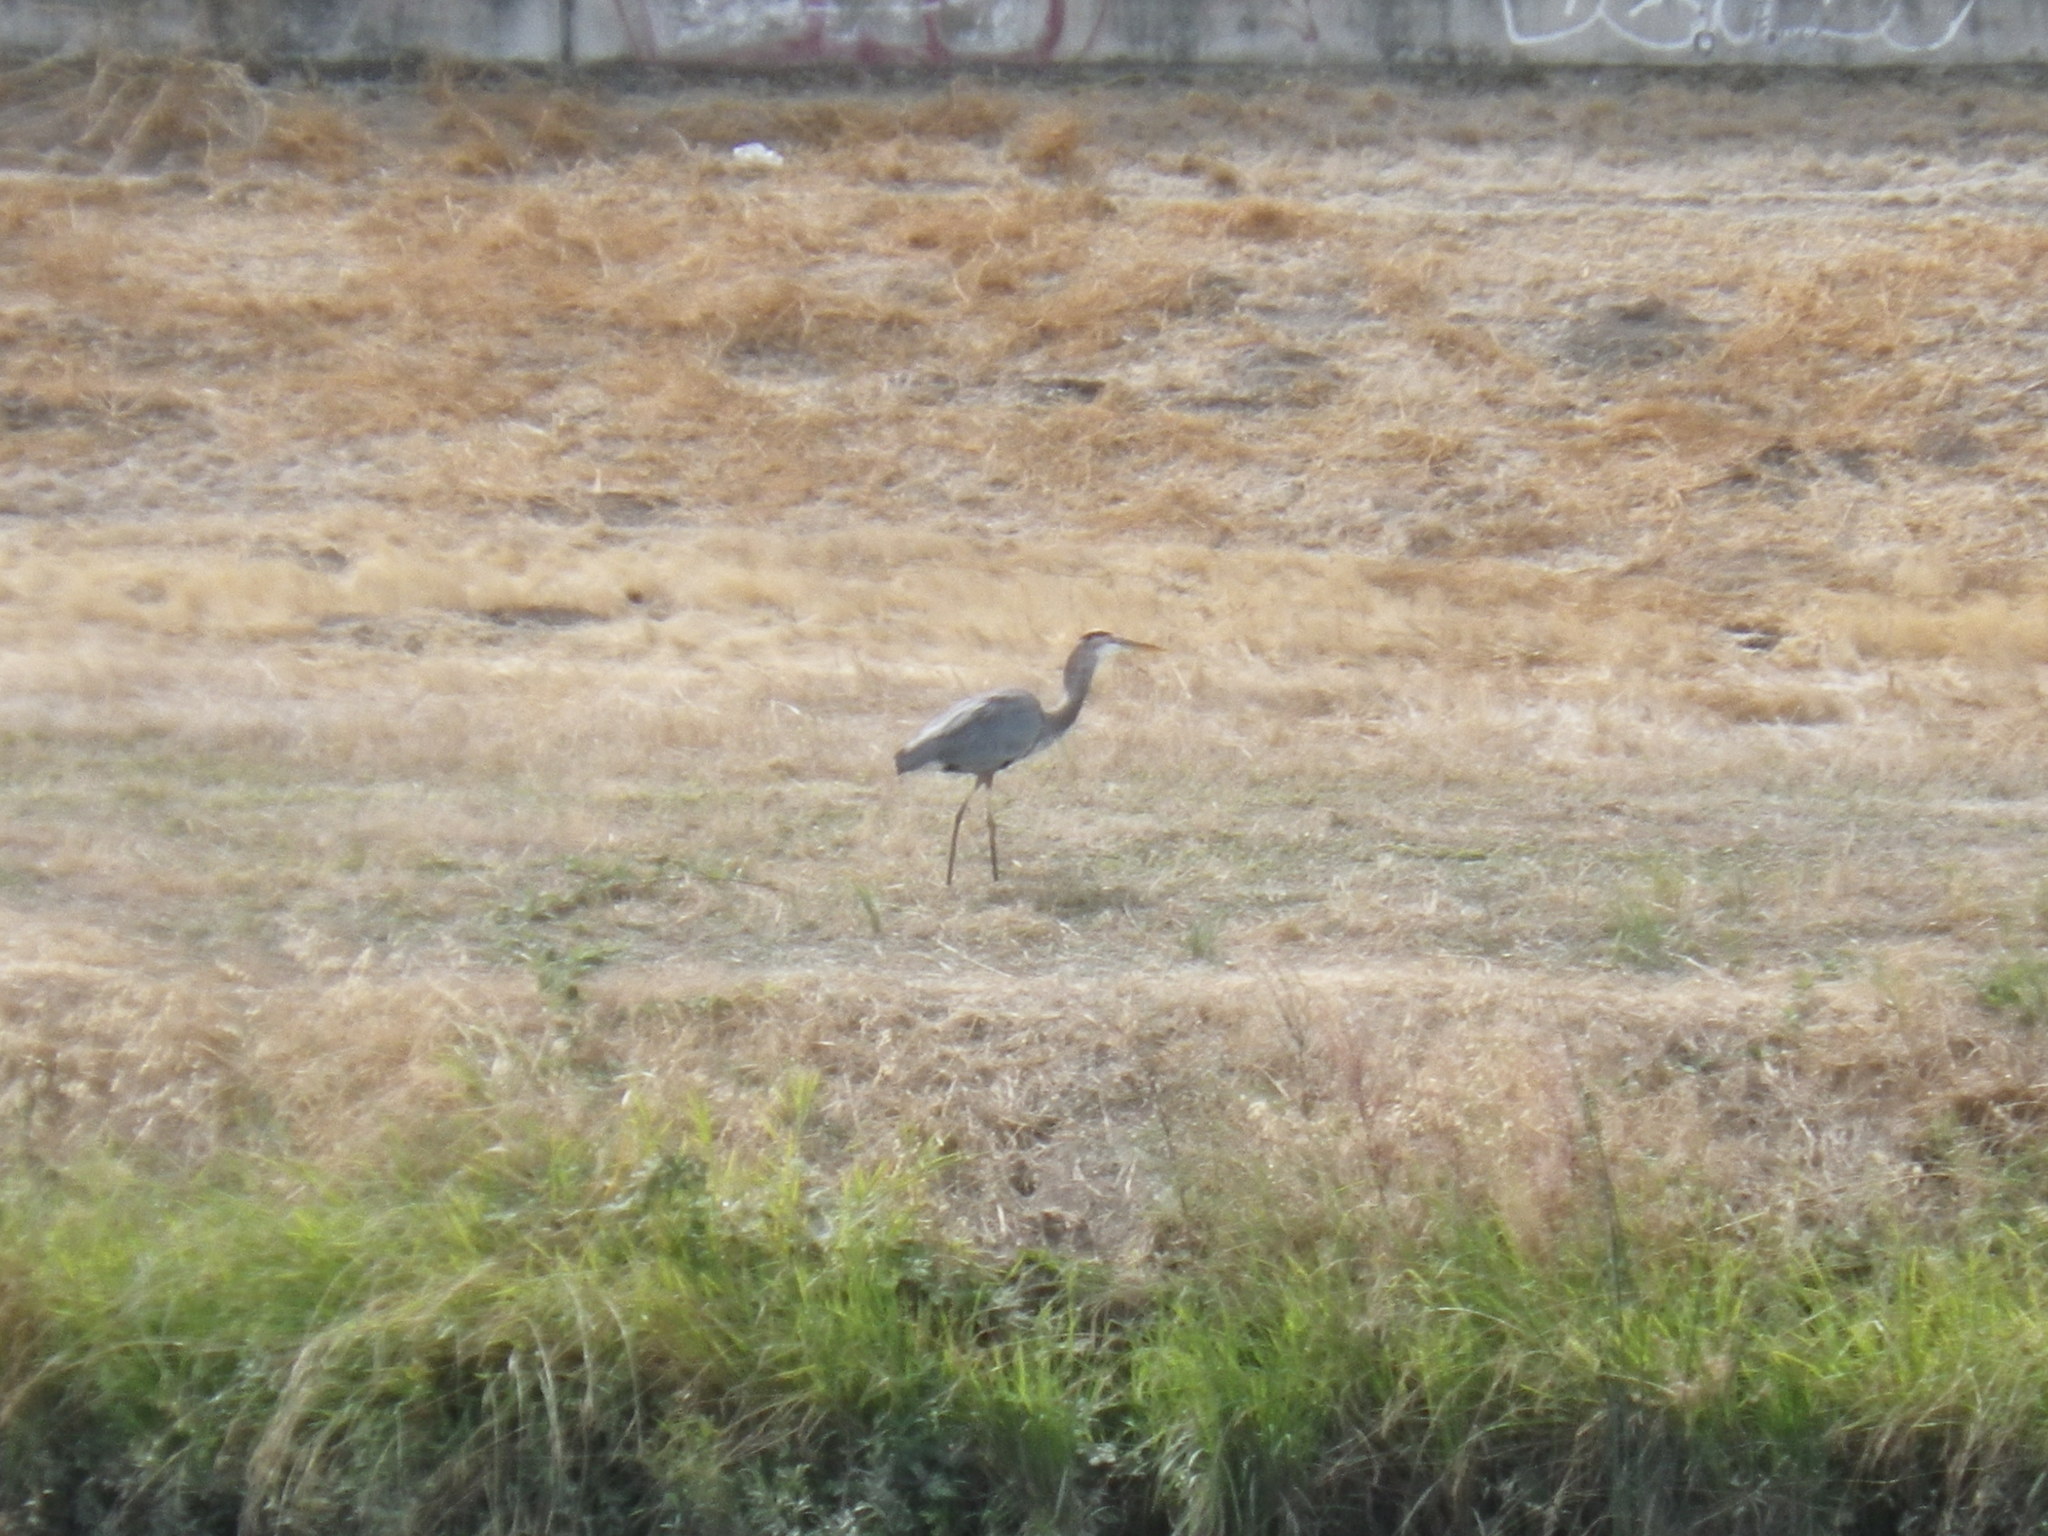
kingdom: Animalia
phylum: Chordata
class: Aves
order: Pelecaniformes
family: Ardeidae
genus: Ardea
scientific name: Ardea herodias
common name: Great blue heron
